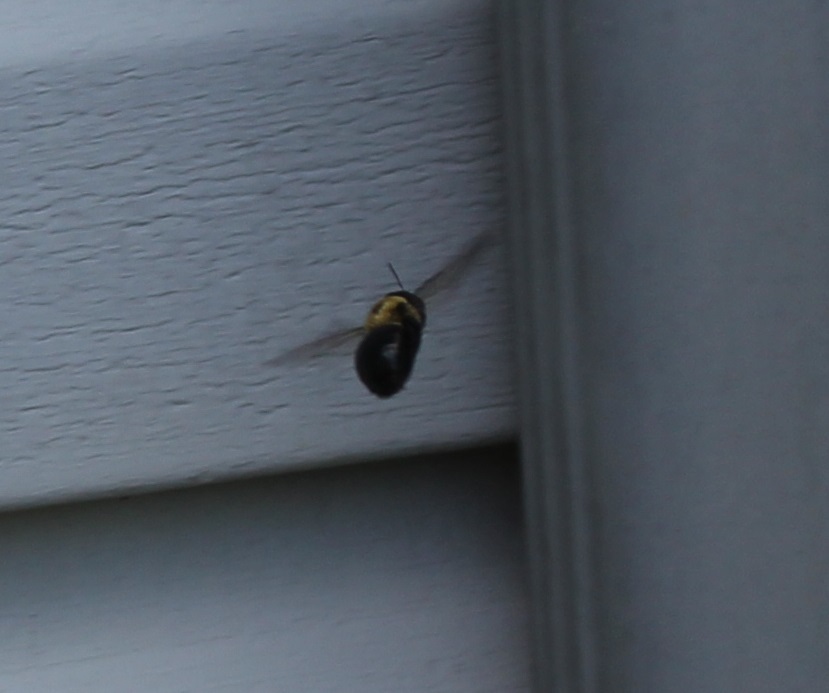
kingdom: Animalia
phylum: Arthropoda
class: Insecta
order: Hymenoptera
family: Apidae
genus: Xylocopa
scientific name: Xylocopa virginica
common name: Carpenter bee
